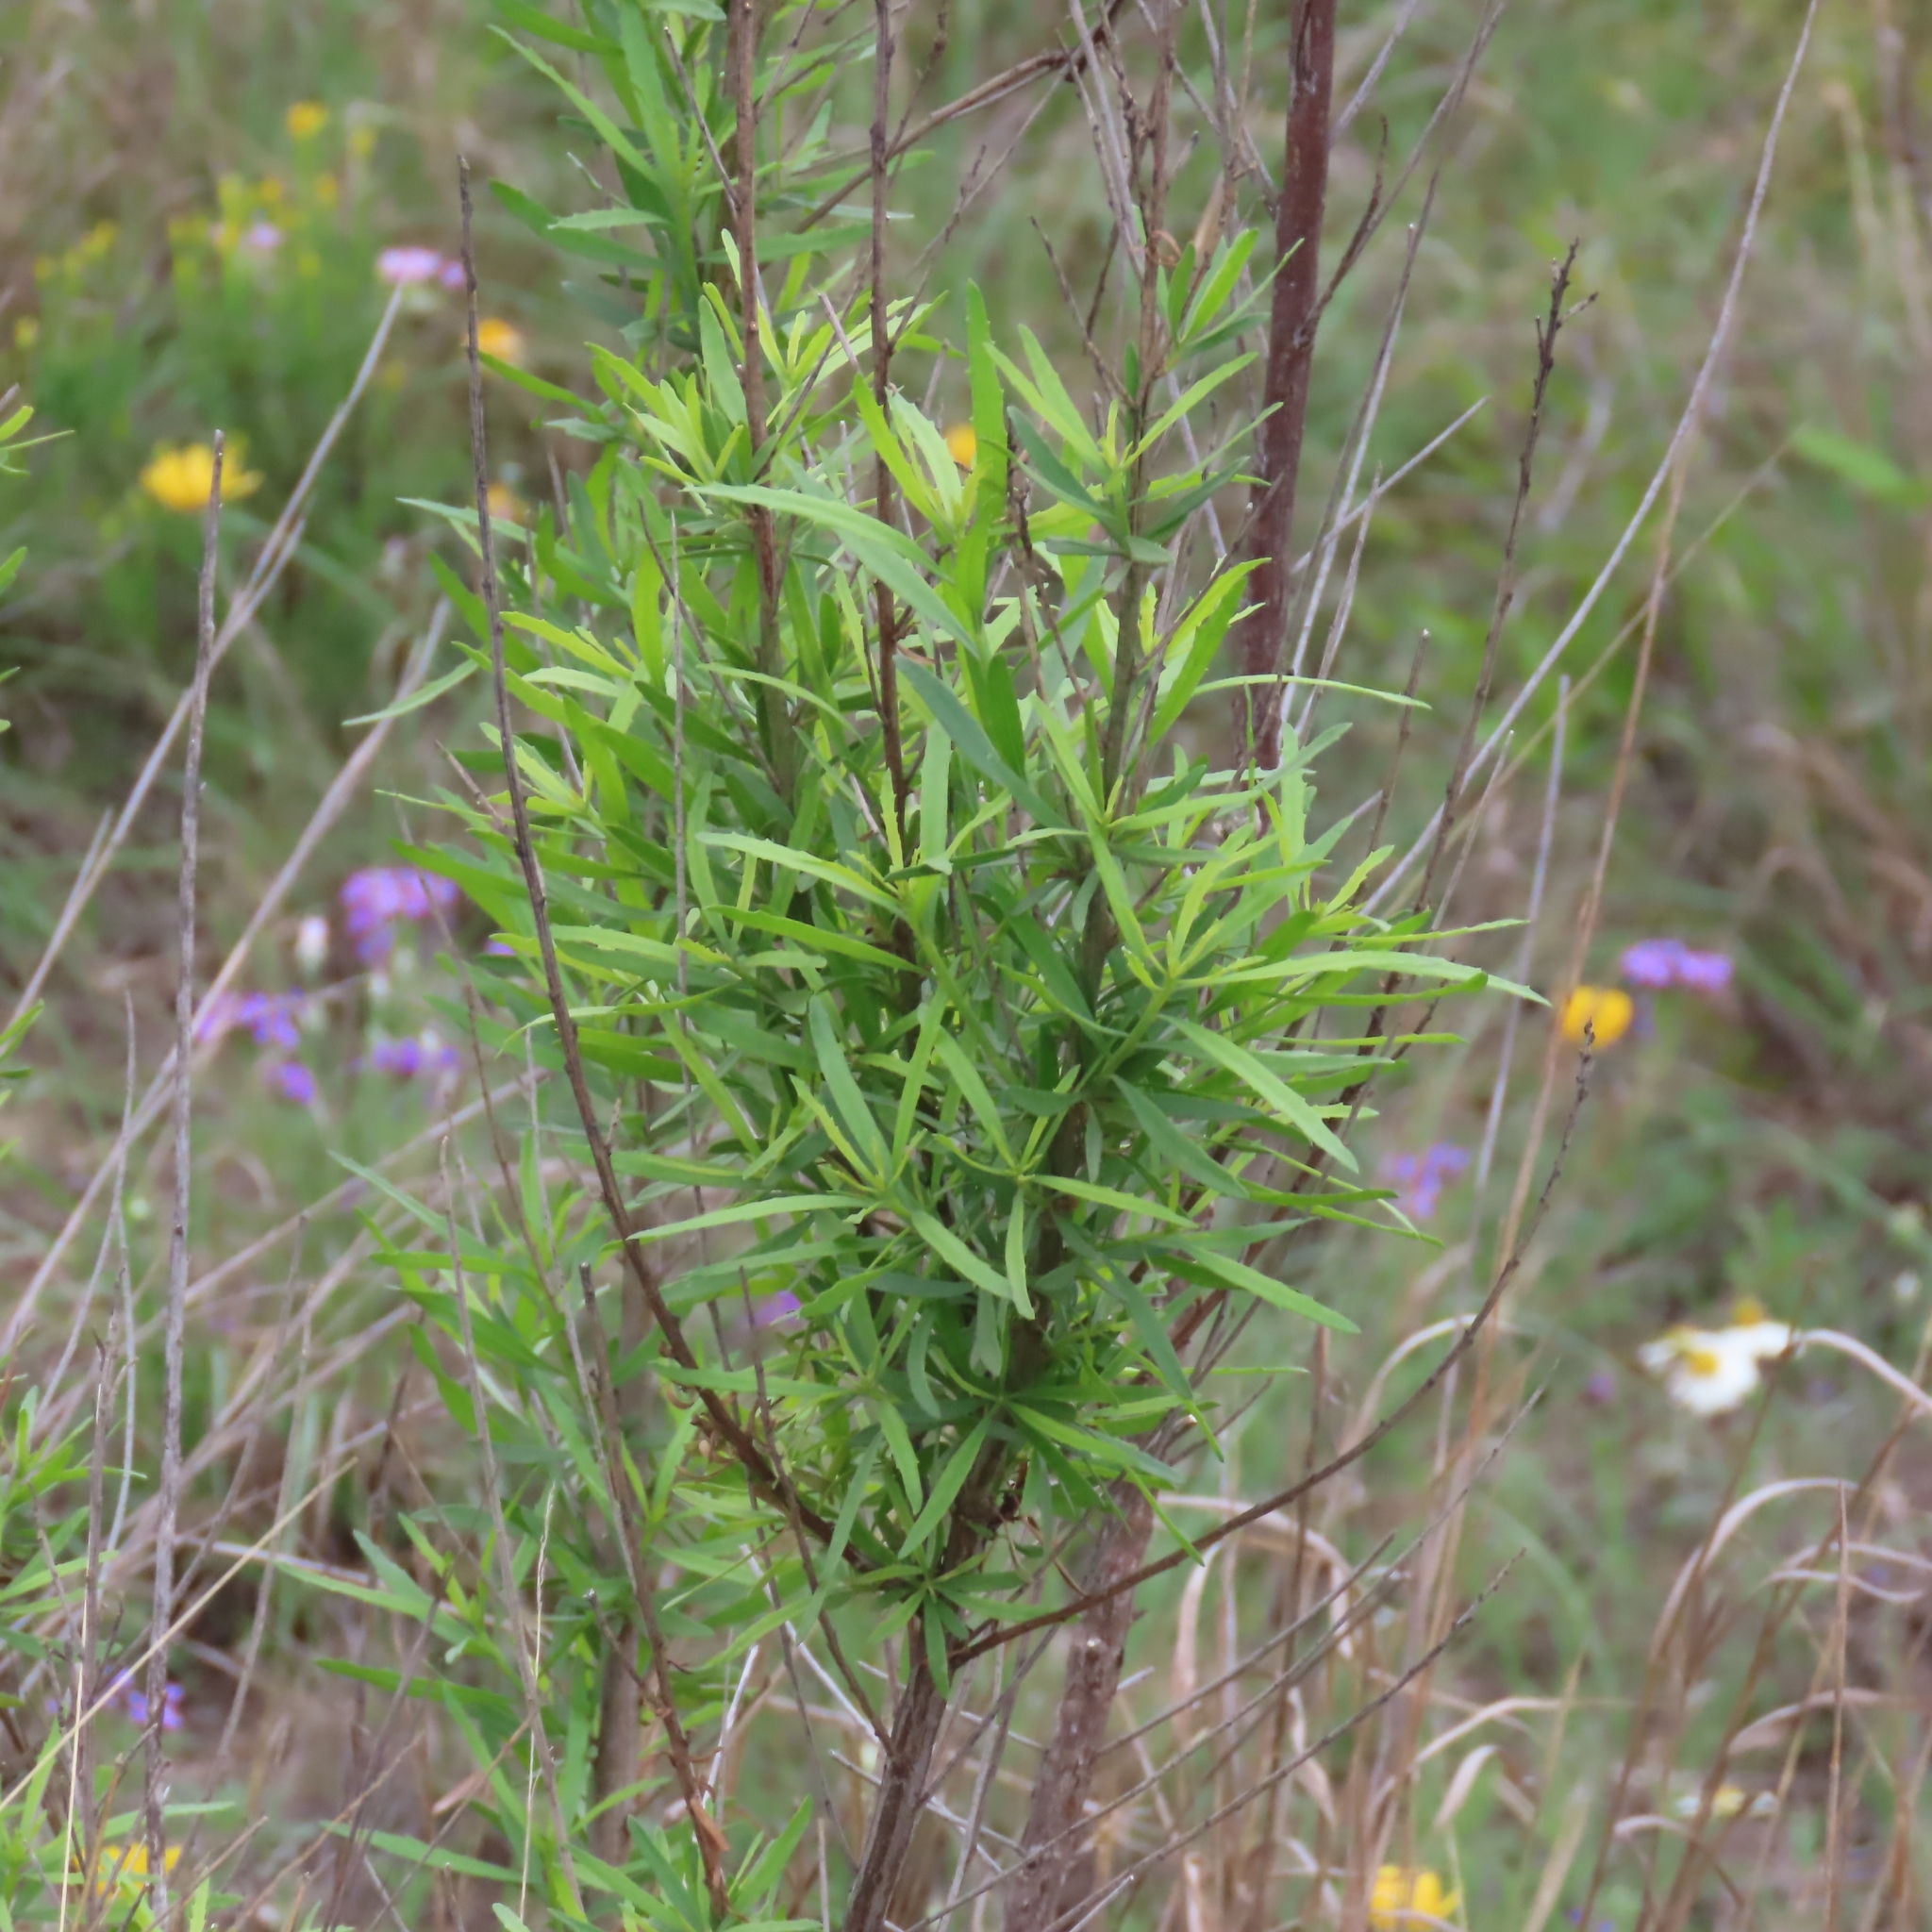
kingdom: Plantae
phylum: Tracheophyta
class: Magnoliopsida
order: Asterales
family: Asteraceae
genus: Baccharis
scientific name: Baccharis neglecta
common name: Roosevelt-weed
